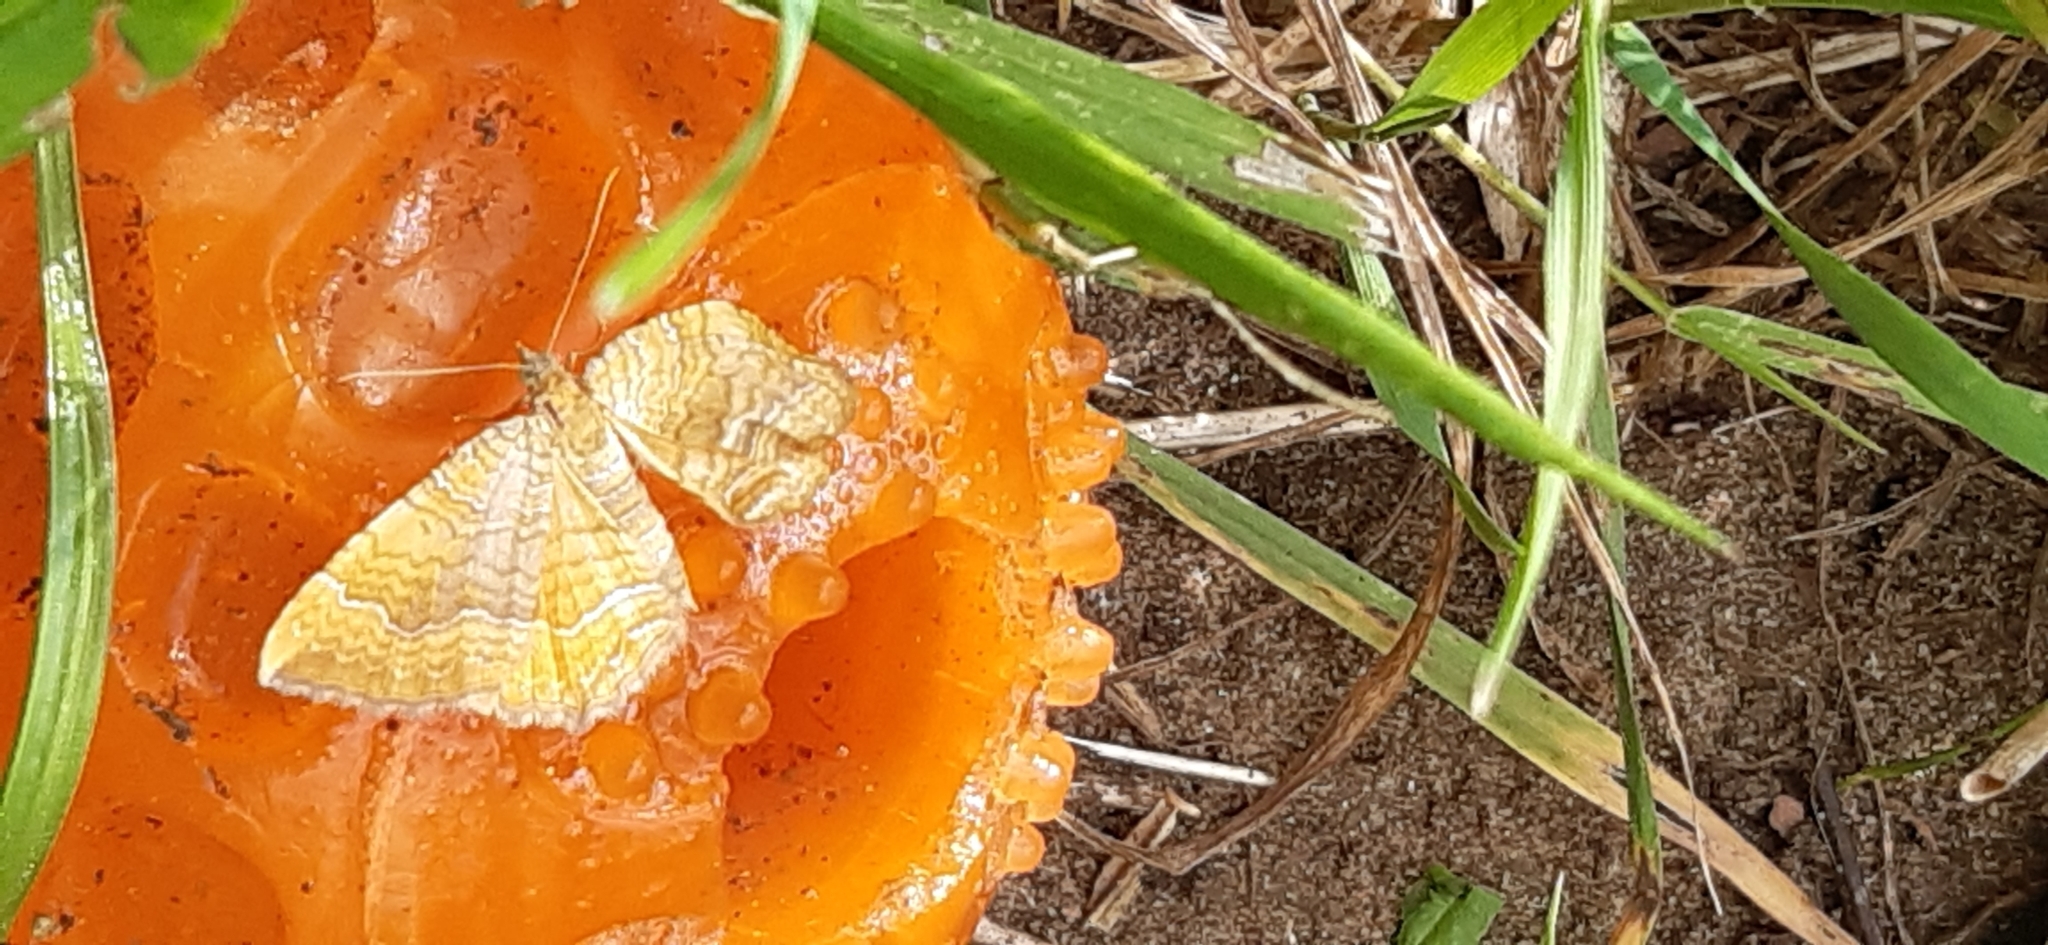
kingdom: Animalia
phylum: Arthropoda
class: Insecta
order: Lepidoptera
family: Geometridae
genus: Camptogramma
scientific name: Camptogramma bilineata
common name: Yellow shell
